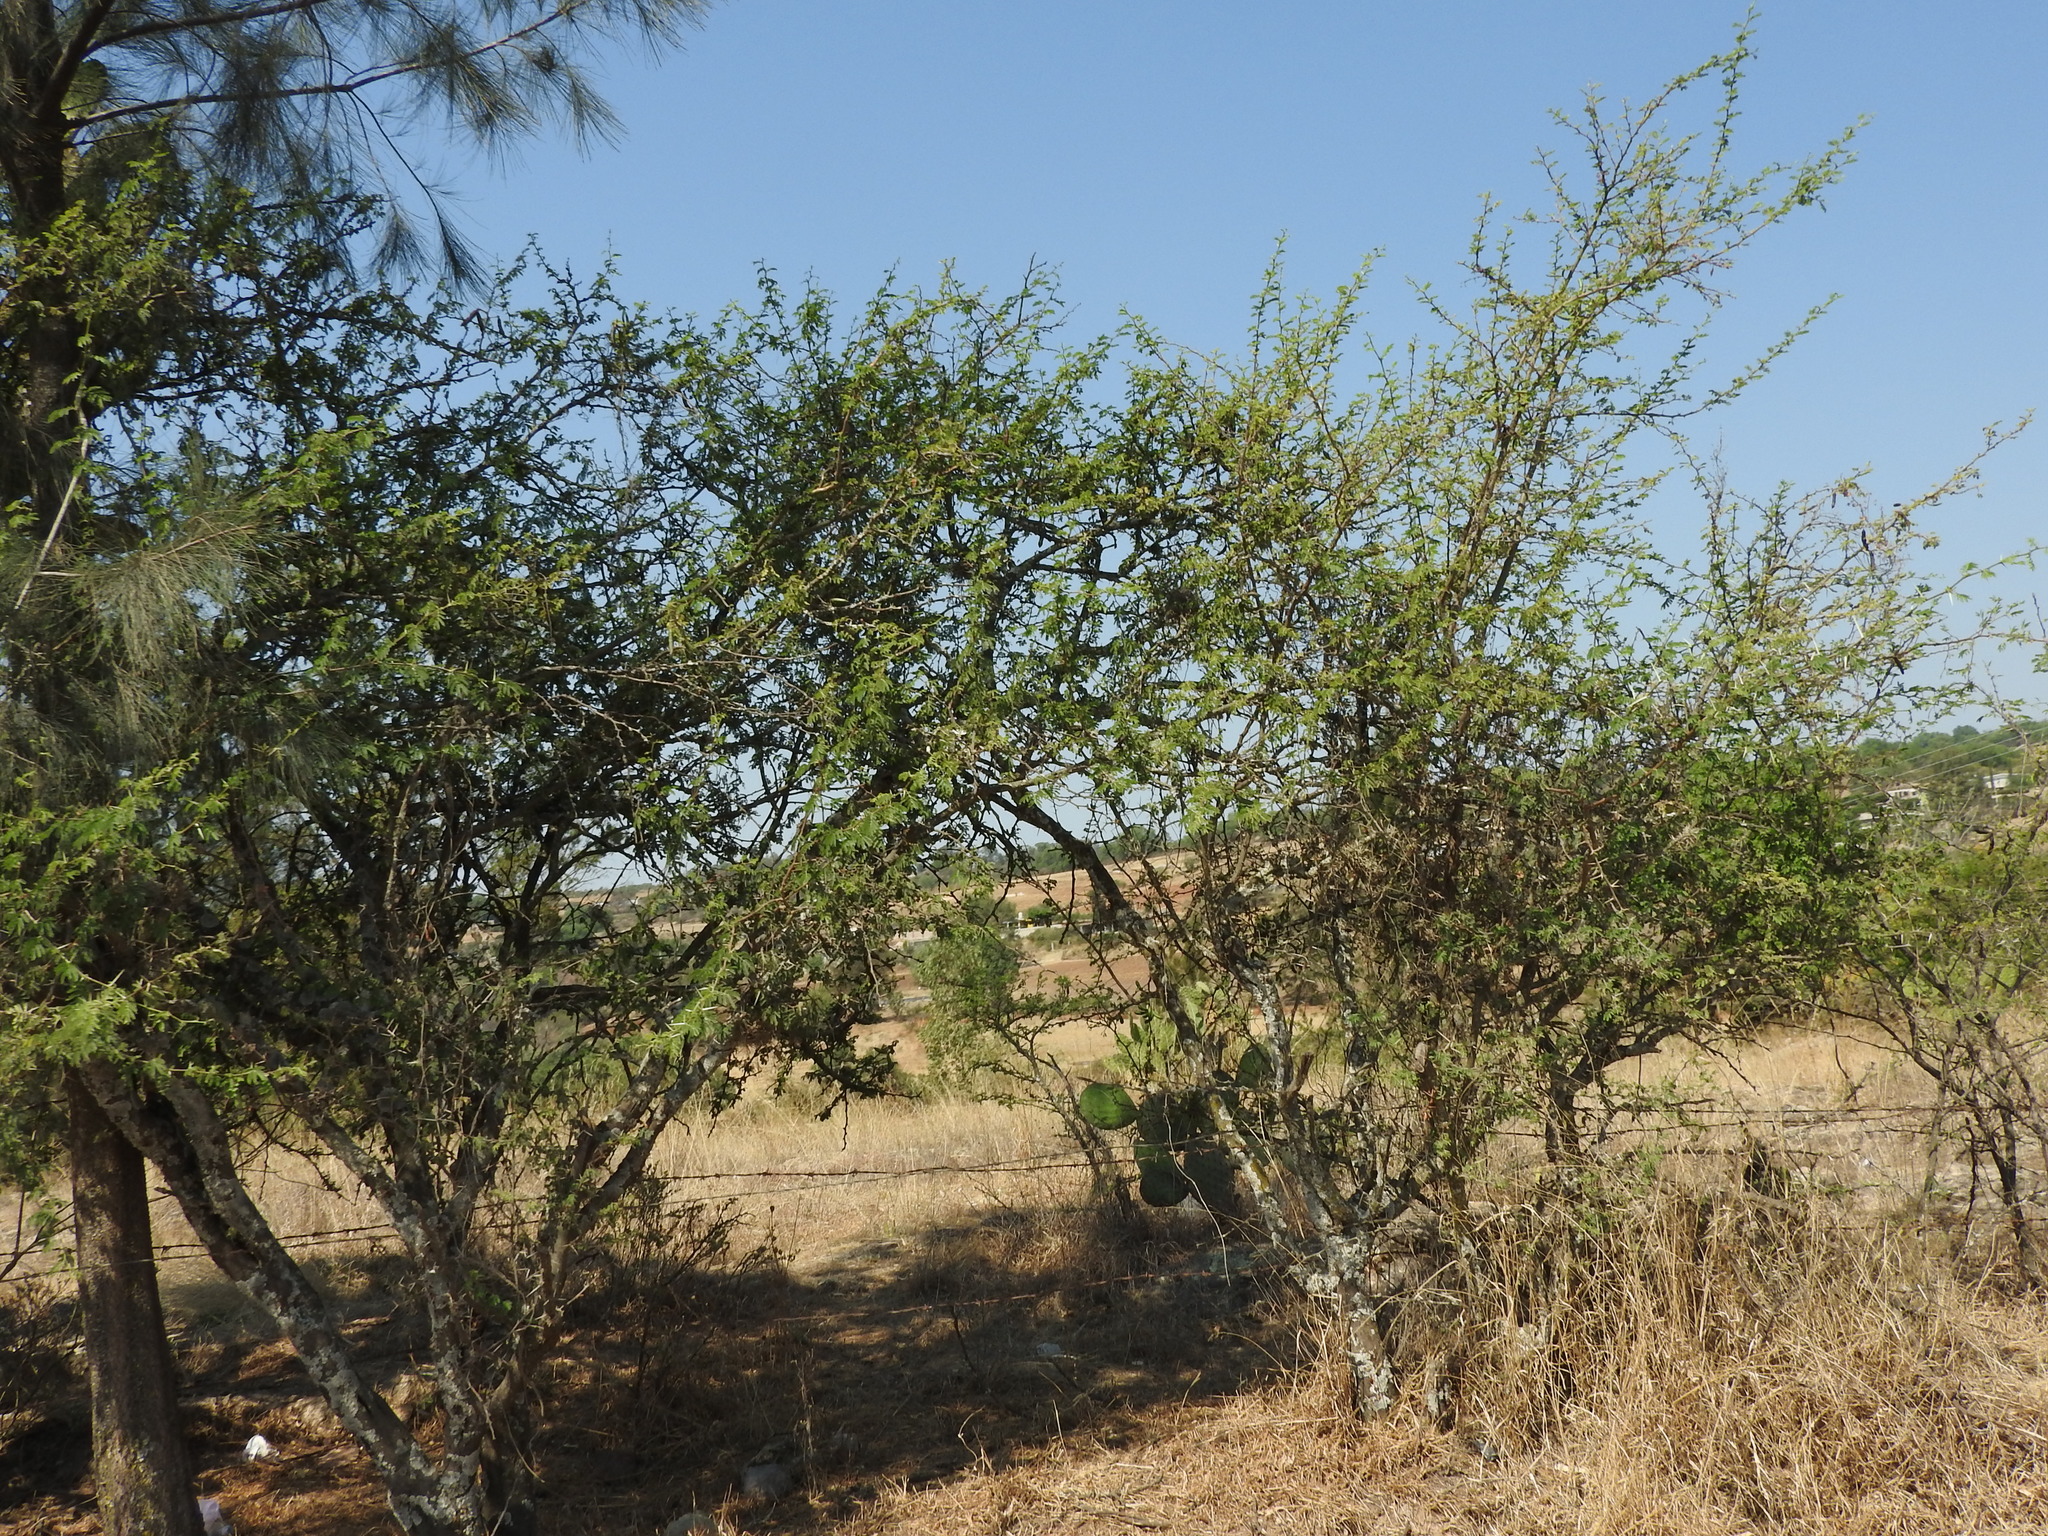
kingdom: Plantae
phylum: Tracheophyta
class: Magnoliopsida
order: Fabales
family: Fabaceae
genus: Vachellia
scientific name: Vachellia farnesiana
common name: Sweet acacia
